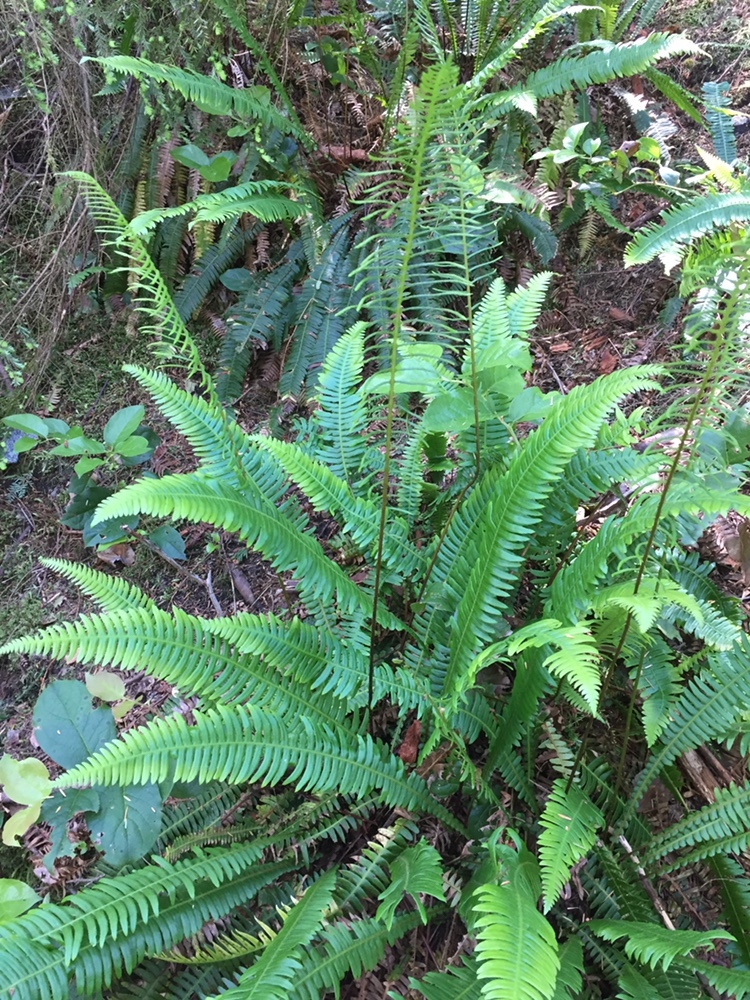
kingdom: Plantae
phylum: Tracheophyta
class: Polypodiopsida
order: Polypodiales
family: Blechnaceae
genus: Struthiopteris
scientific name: Struthiopteris spicant
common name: Deer fern
